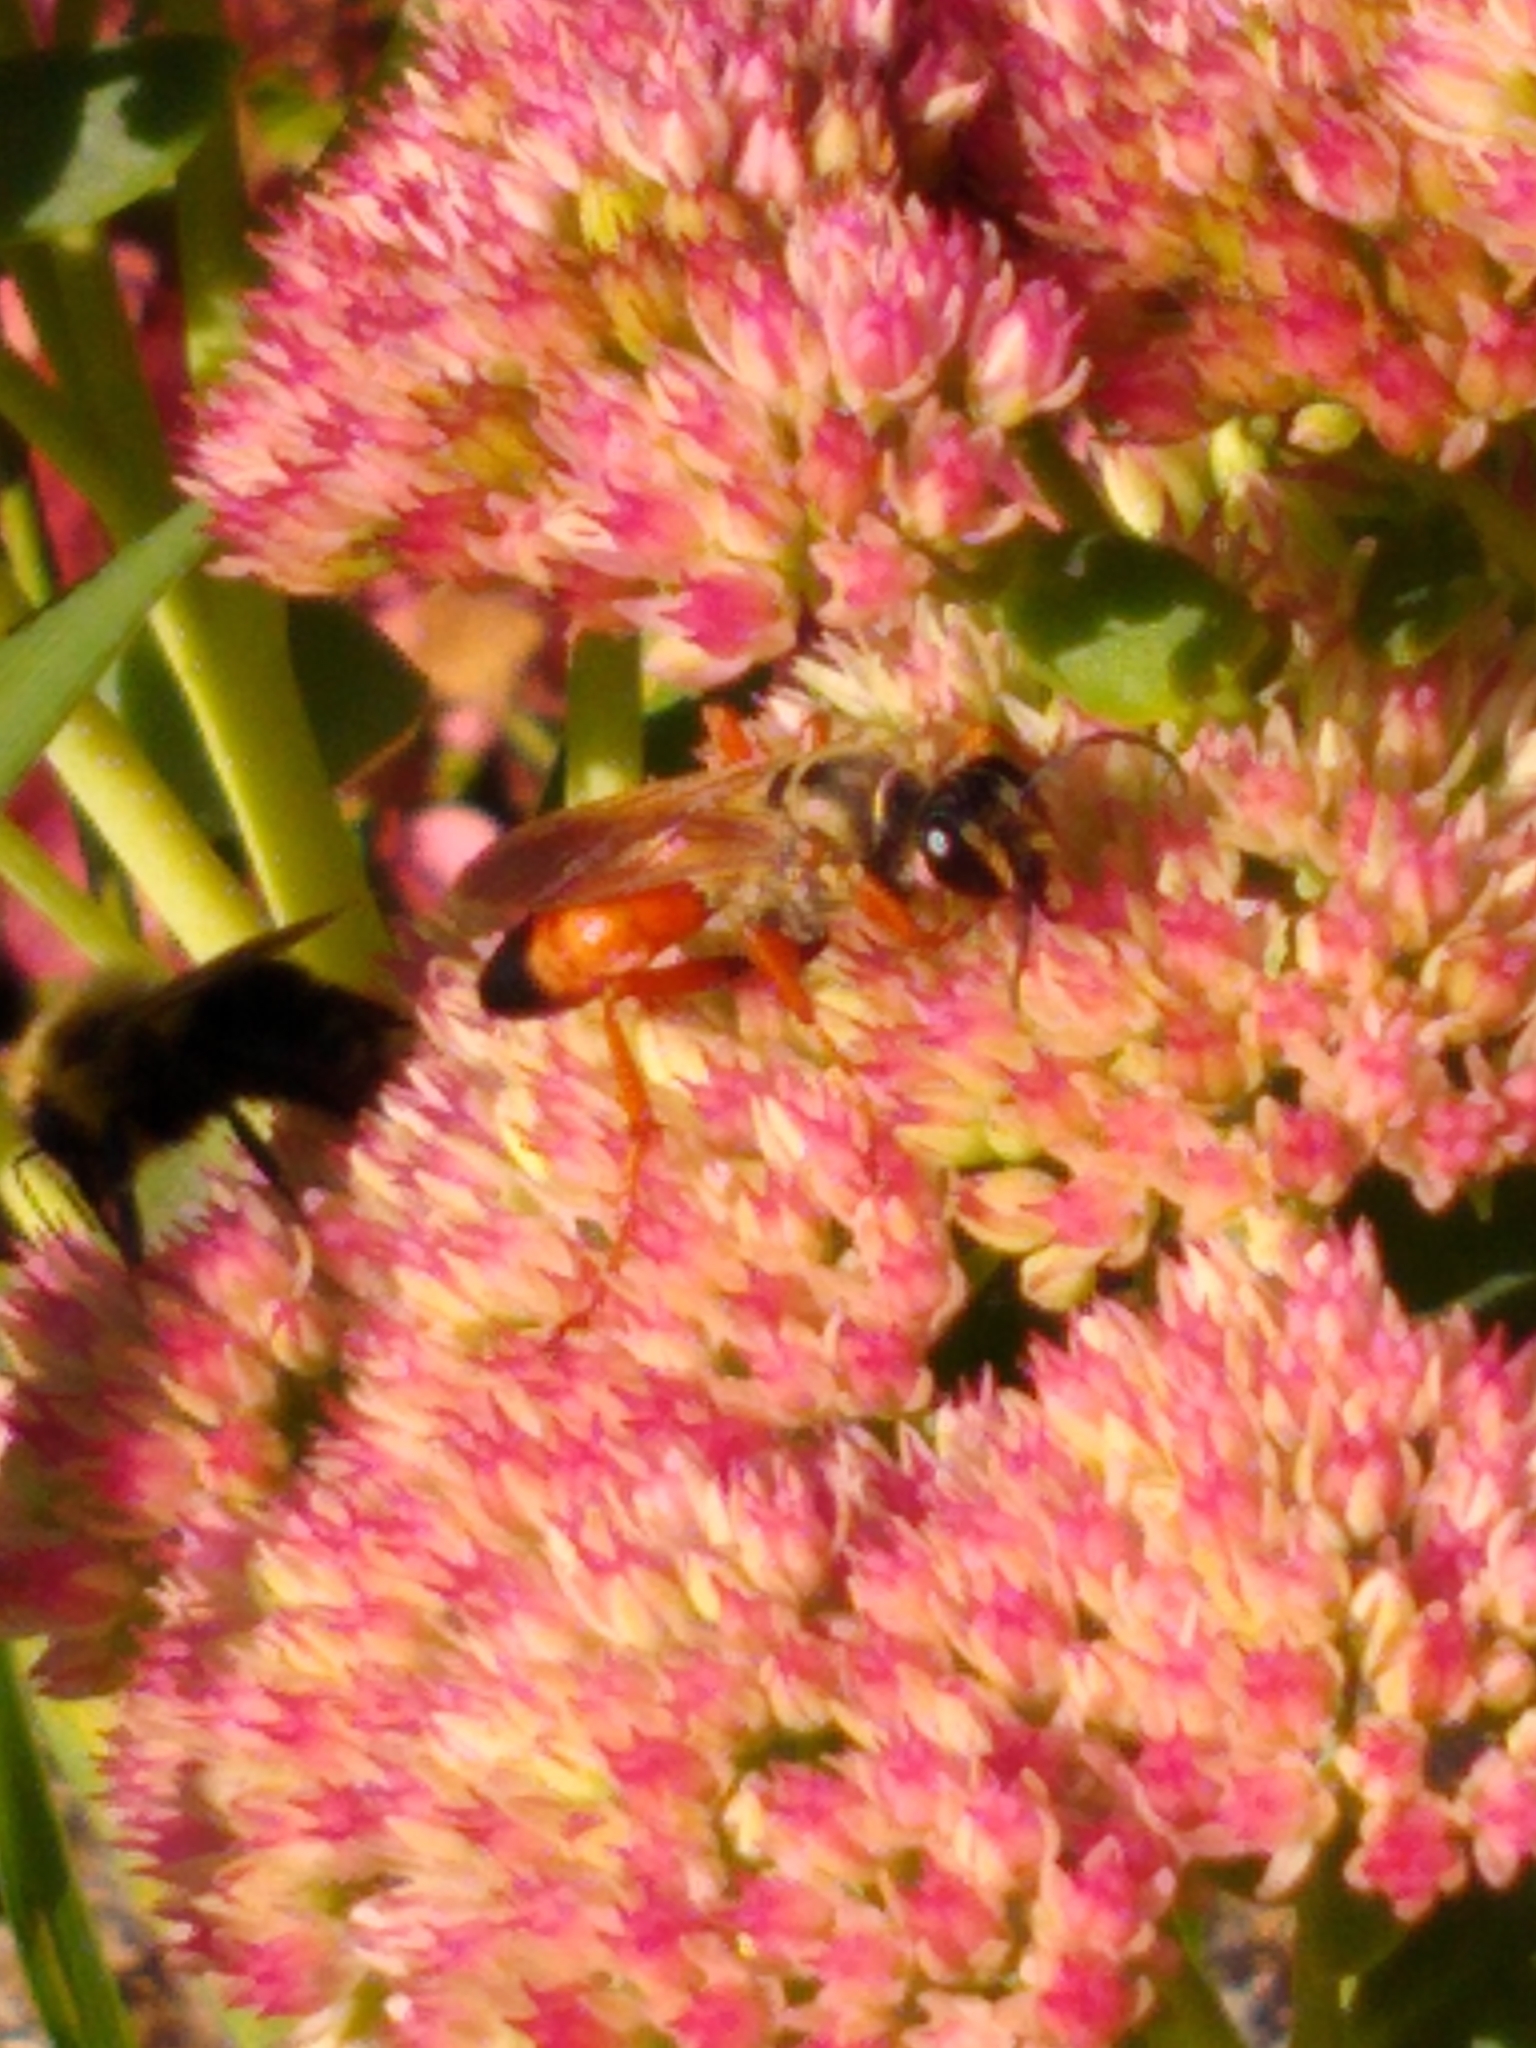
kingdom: Animalia
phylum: Arthropoda
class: Insecta
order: Hymenoptera
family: Sphecidae
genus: Sphex
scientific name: Sphex ichneumoneus
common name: Great golden digger wasp
